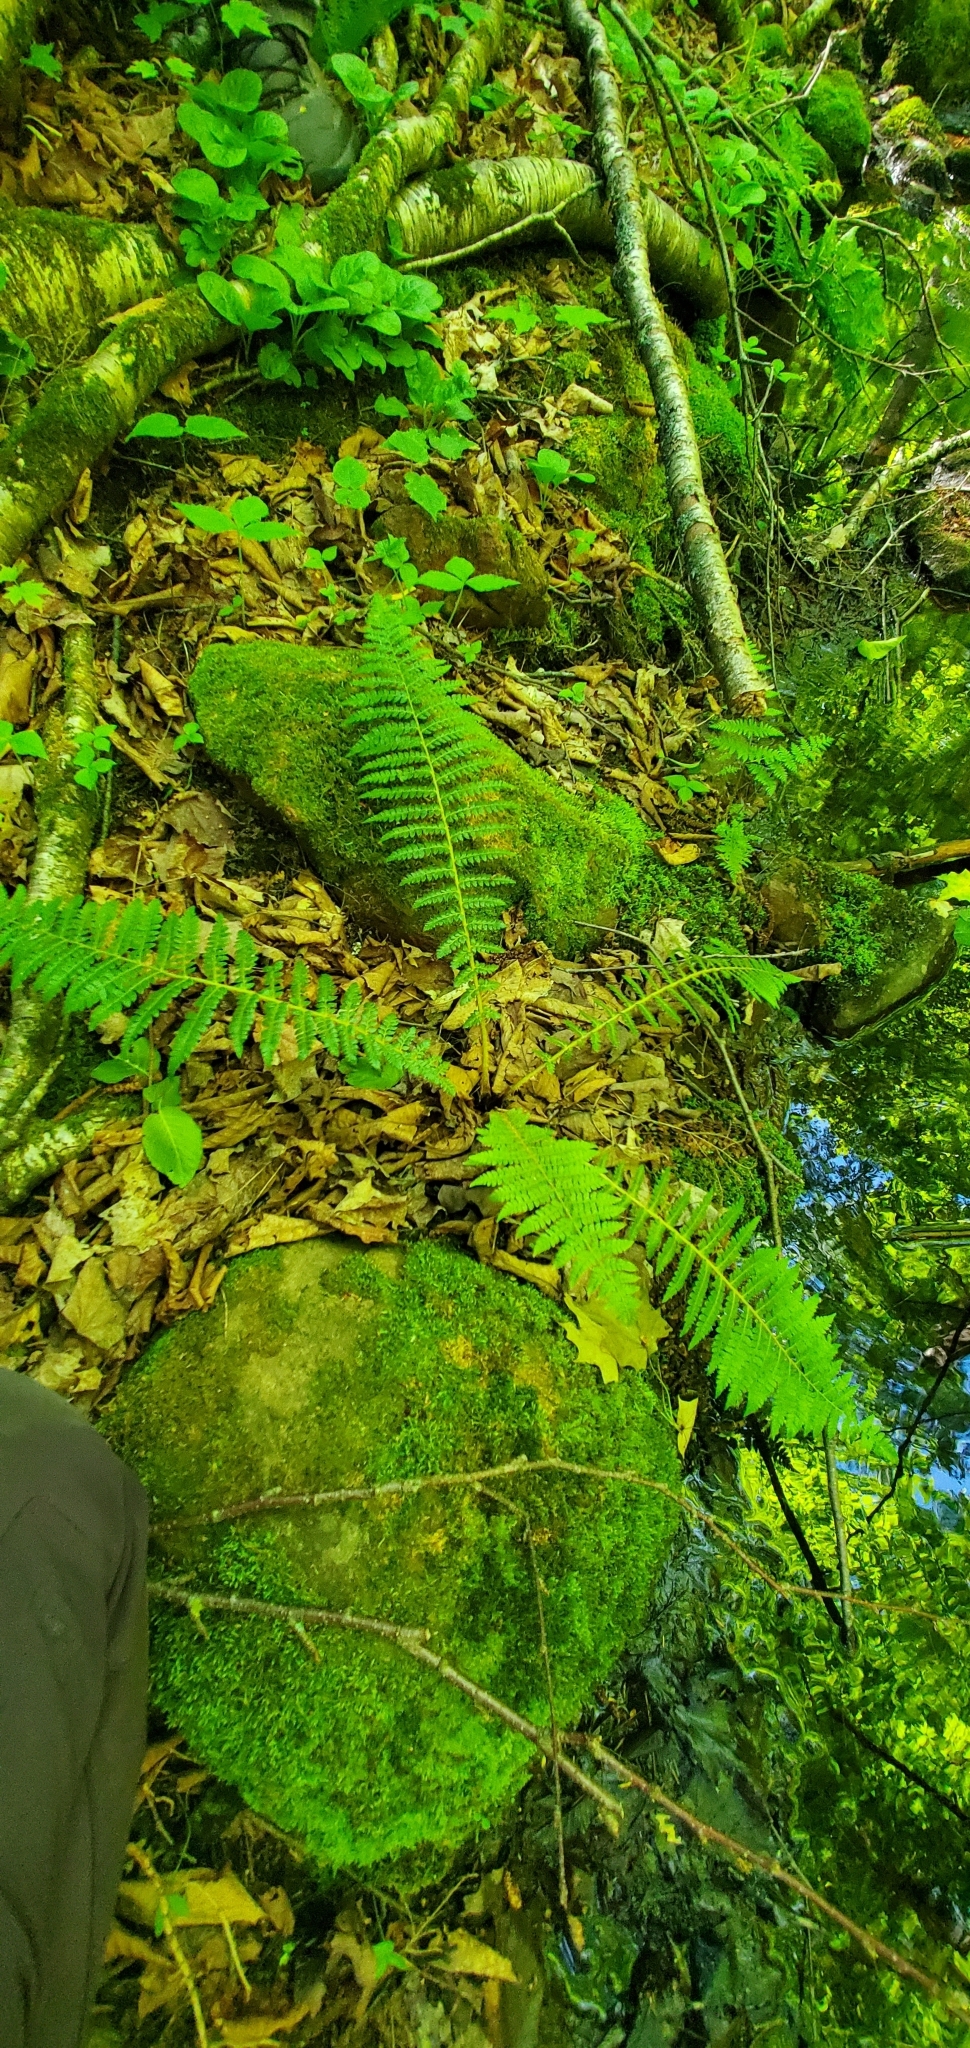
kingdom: Plantae
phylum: Tracheophyta
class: Polypodiopsida
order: Polypodiales
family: Dryopteridaceae
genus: Polystichum
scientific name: Polystichum braunii
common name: Braun's holly fern
